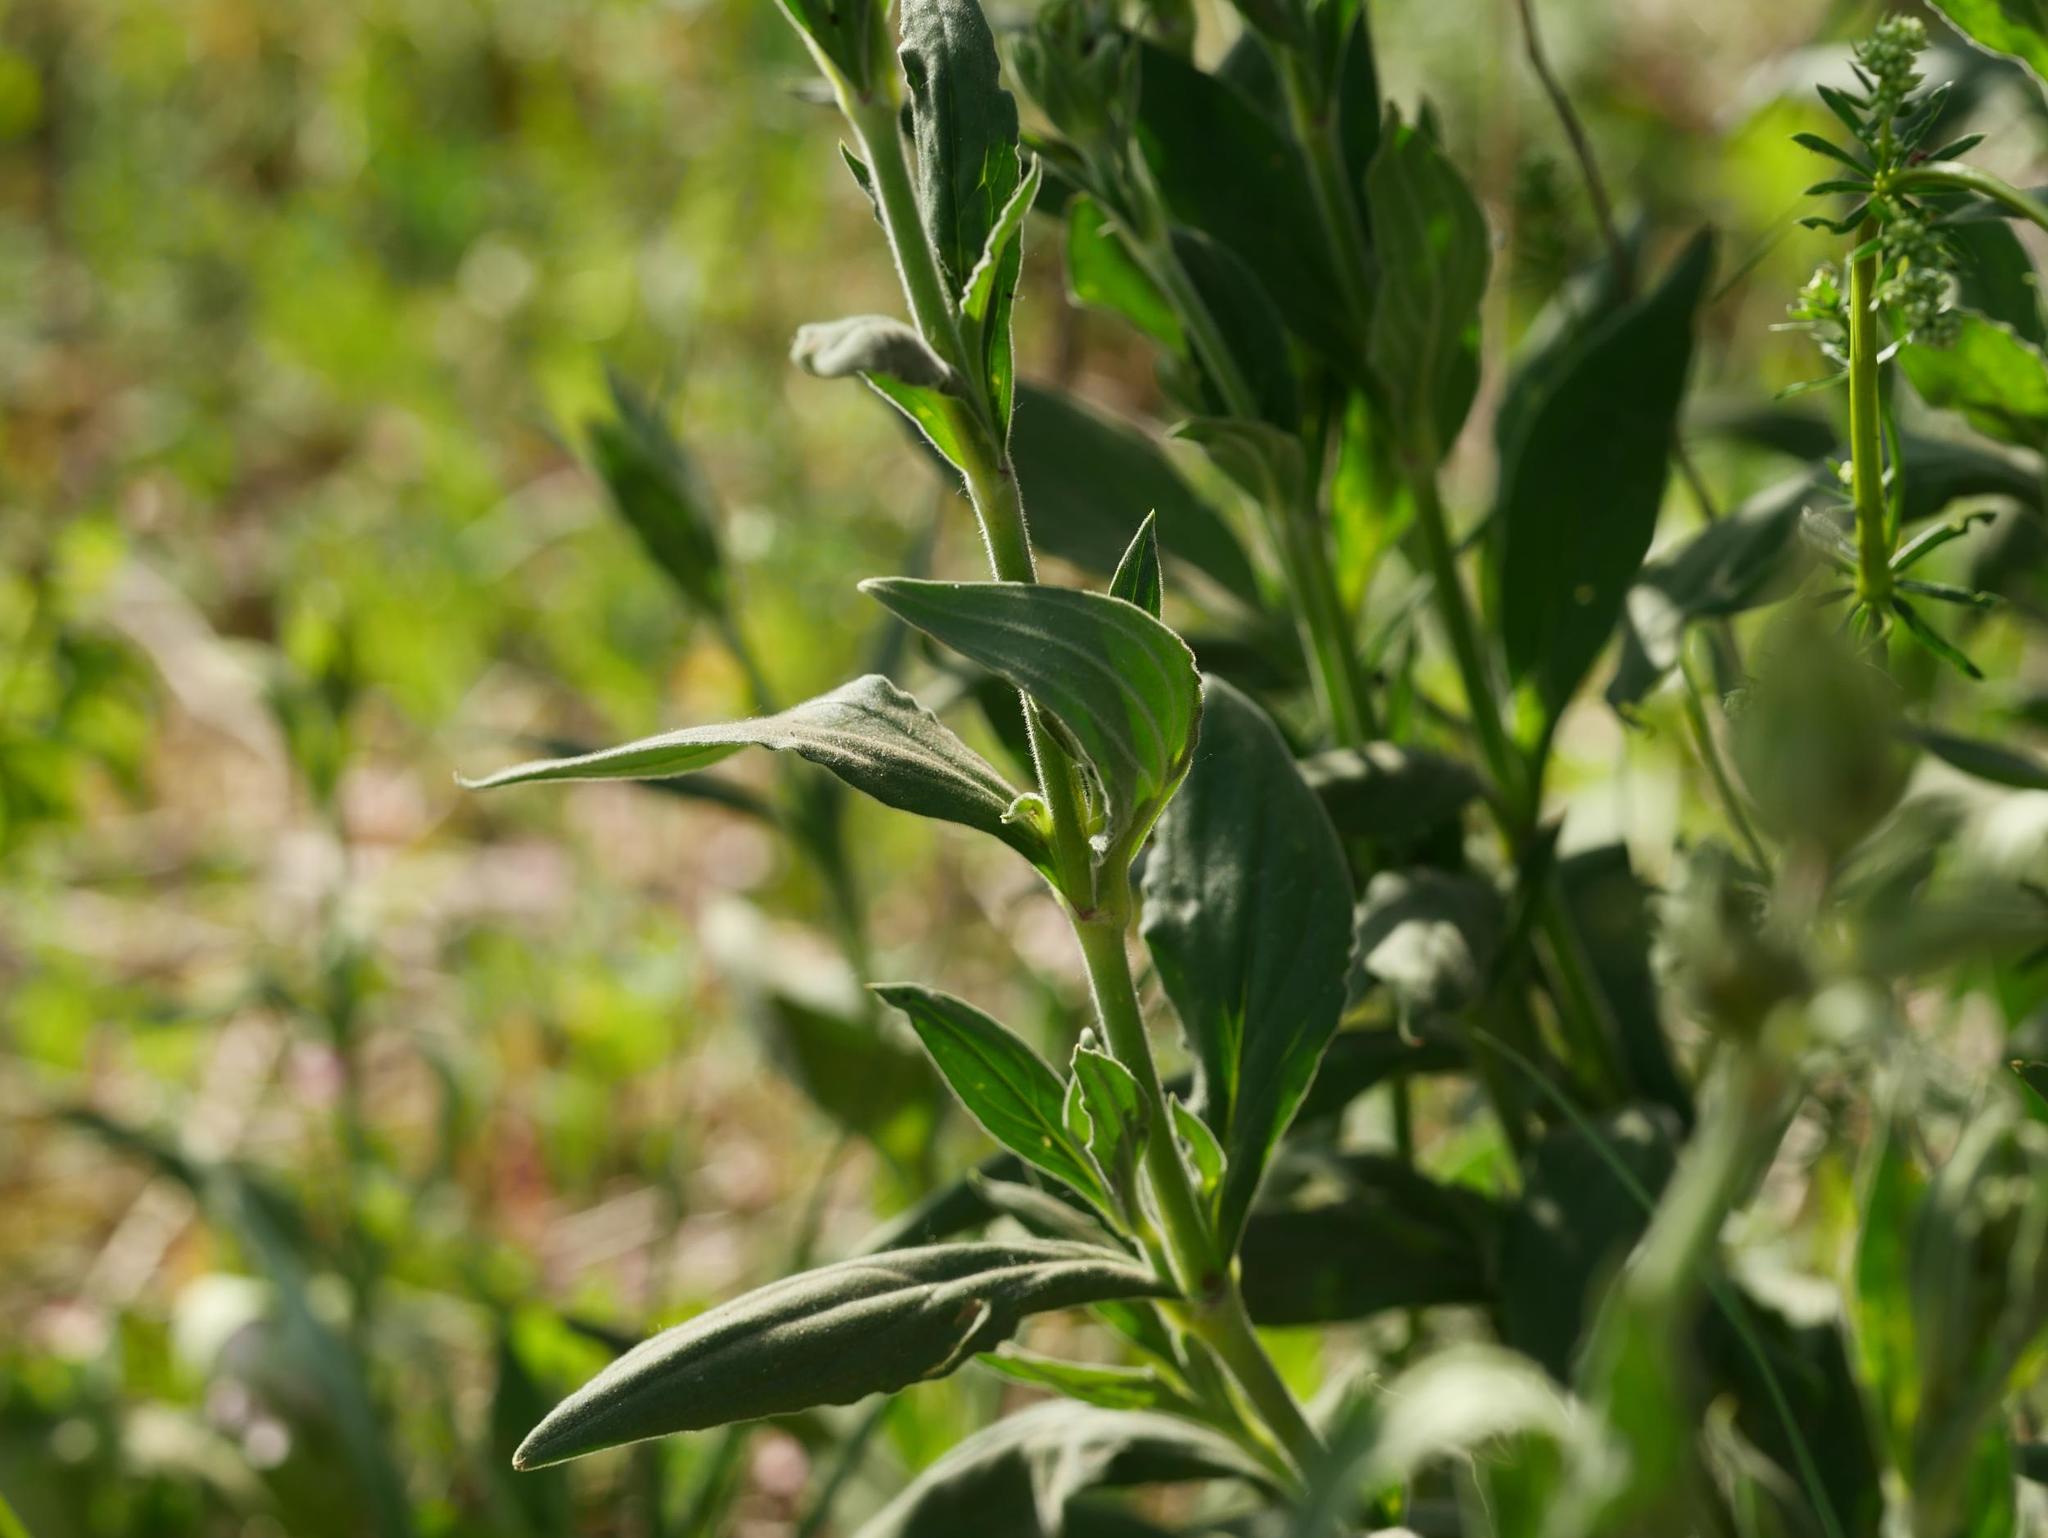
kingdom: Plantae
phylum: Tracheophyta
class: Magnoliopsida
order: Caryophyllales
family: Caryophyllaceae
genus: Silene
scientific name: Silene latifolia
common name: White campion
